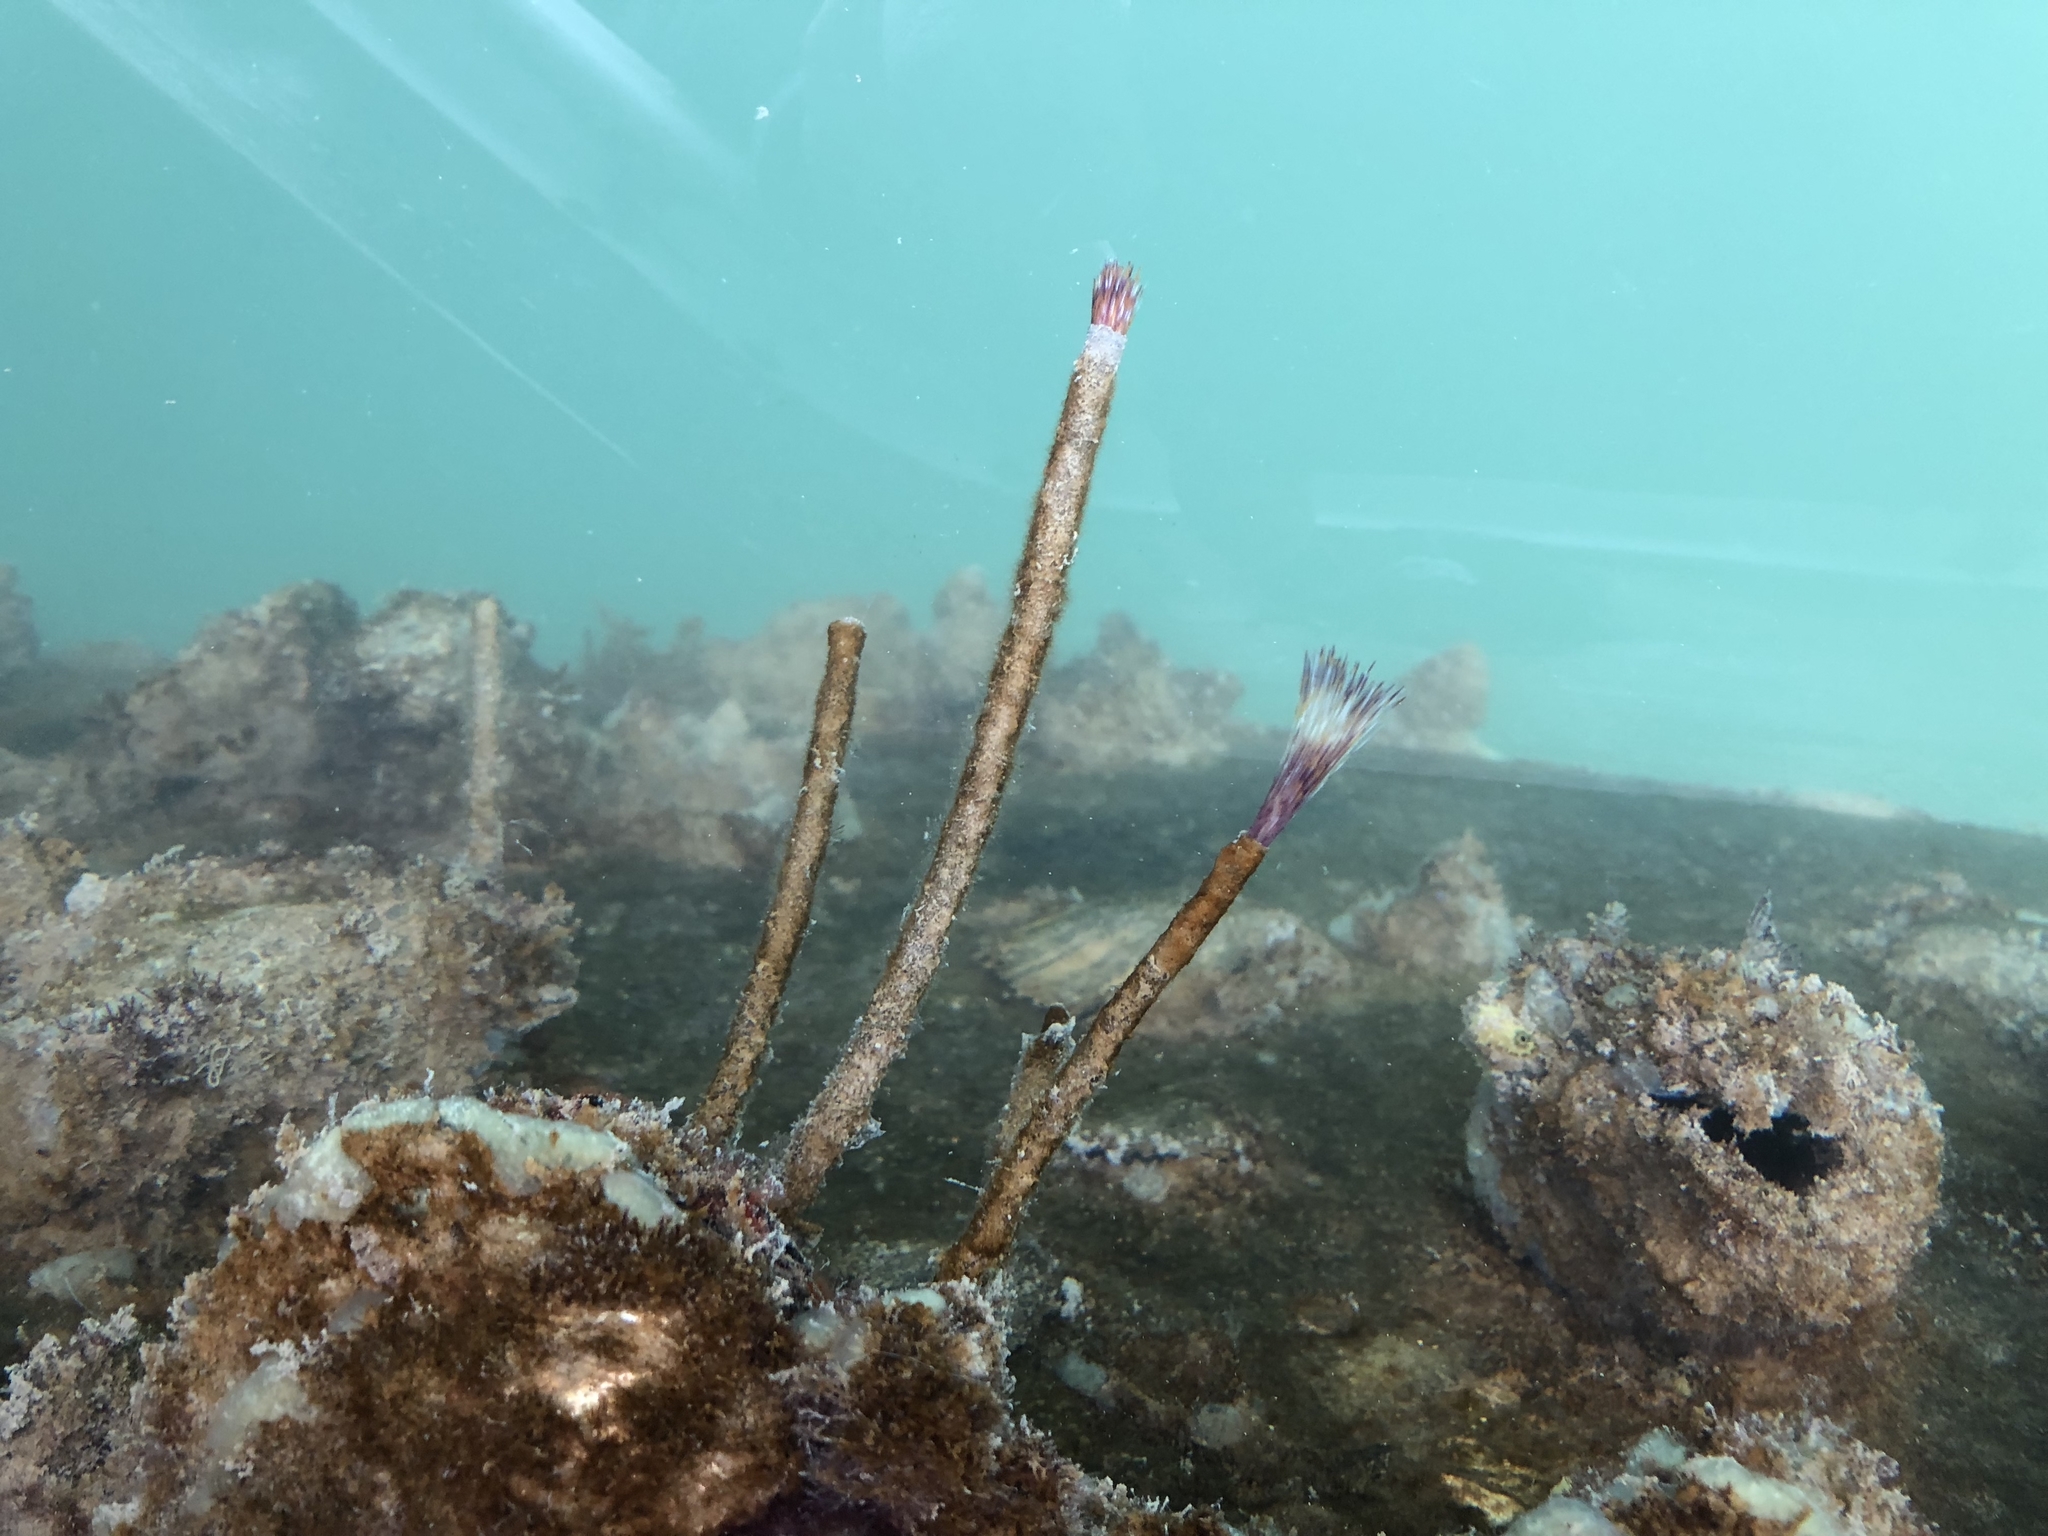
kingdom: Animalia
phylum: Annelida
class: Polychaeta
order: Sabellida
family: Sabellidae
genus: Sabella
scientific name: Sabella spallanzanii
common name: Feather duster worm
